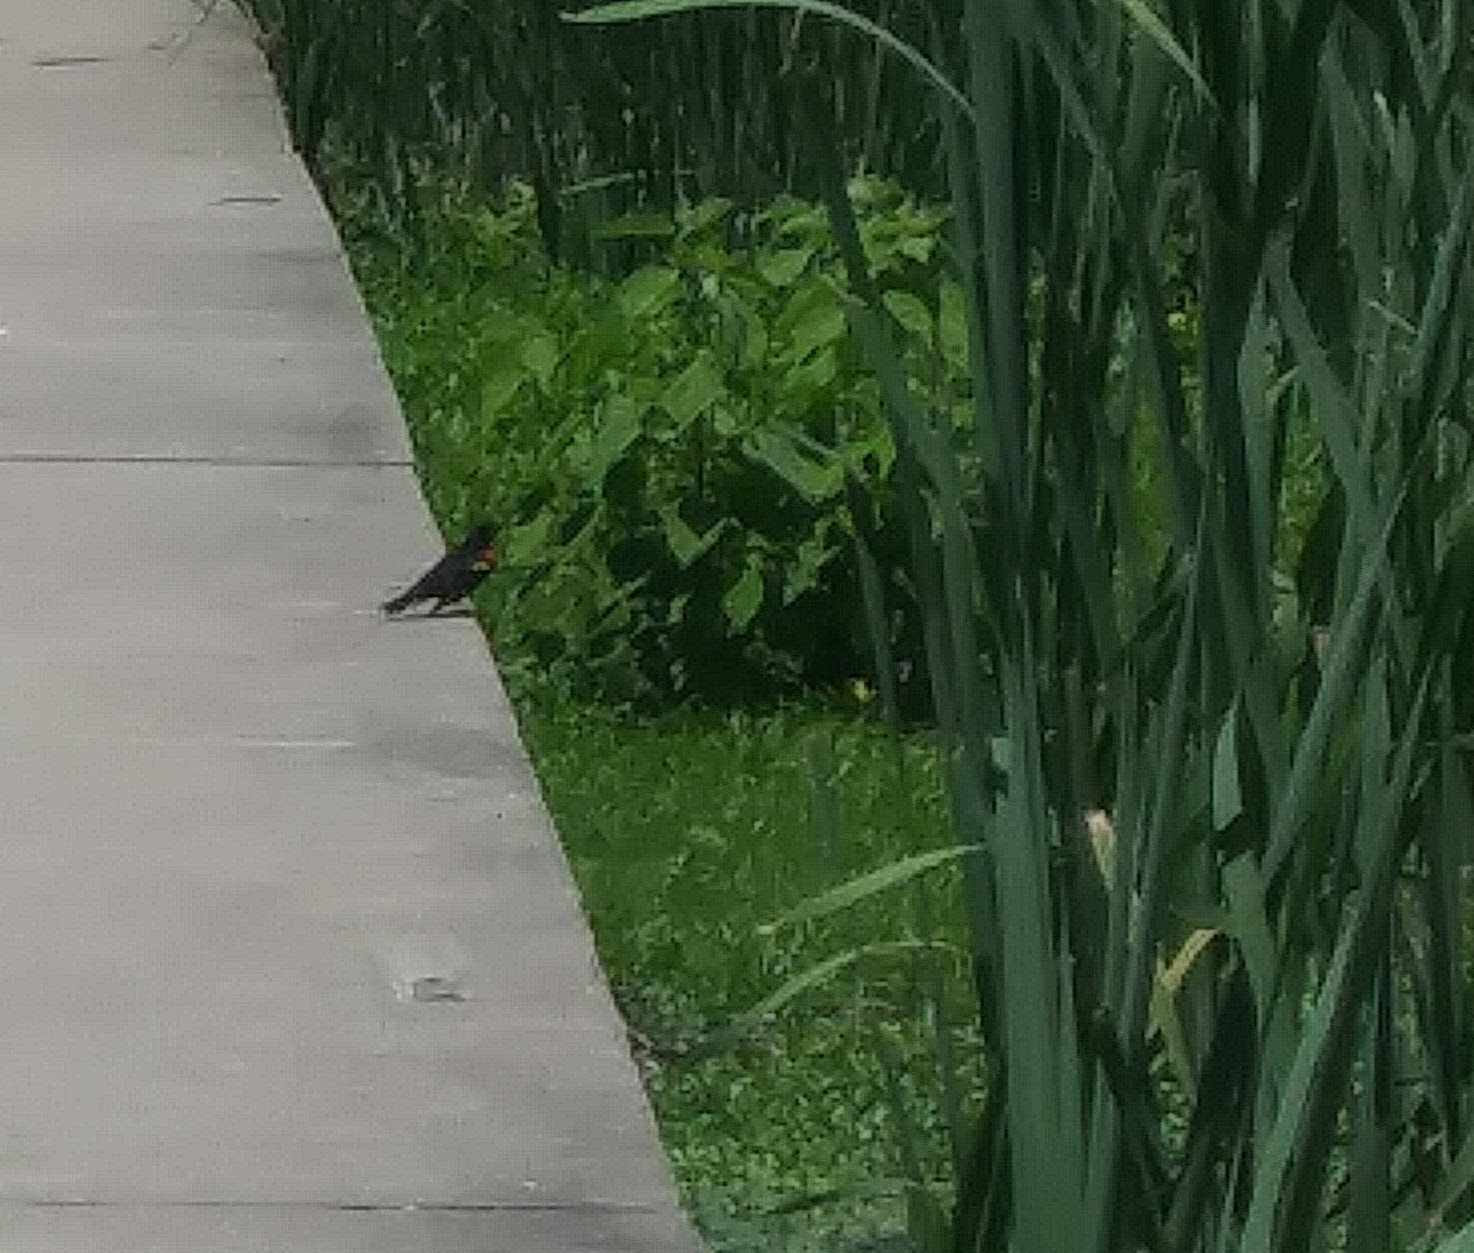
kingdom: Animalia
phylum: Chordata
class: Aves
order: Passeriformes
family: Icteridae
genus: Agelaius
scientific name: Agelaius phoeniceus
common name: Red-winged blackbird
